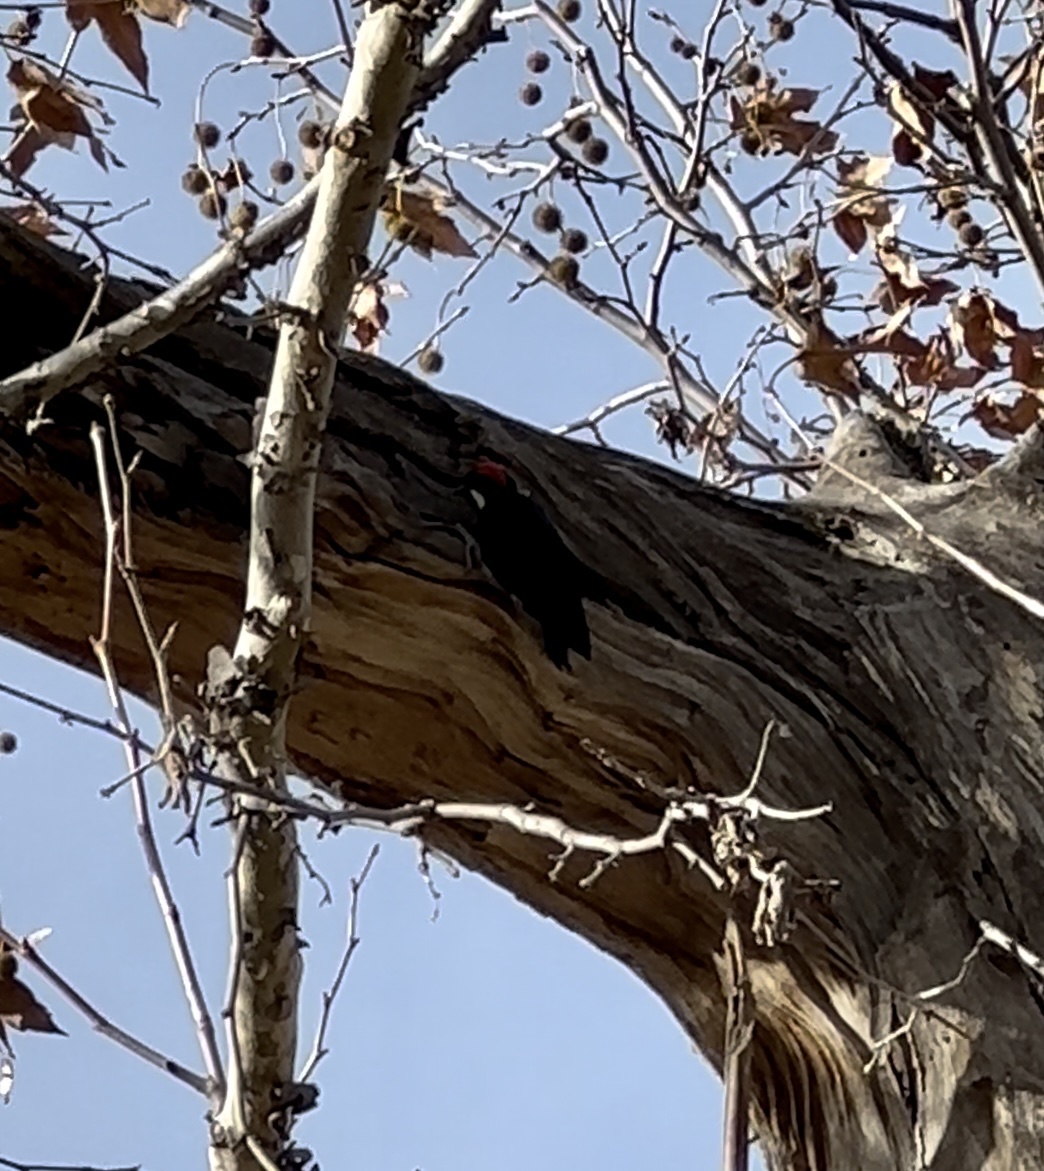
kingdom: Animalia
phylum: Chordata
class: Aves
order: Piciformes
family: Picidae
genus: Melanerpes
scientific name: Melanerpes formicivorus
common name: Acorn woodpecker
